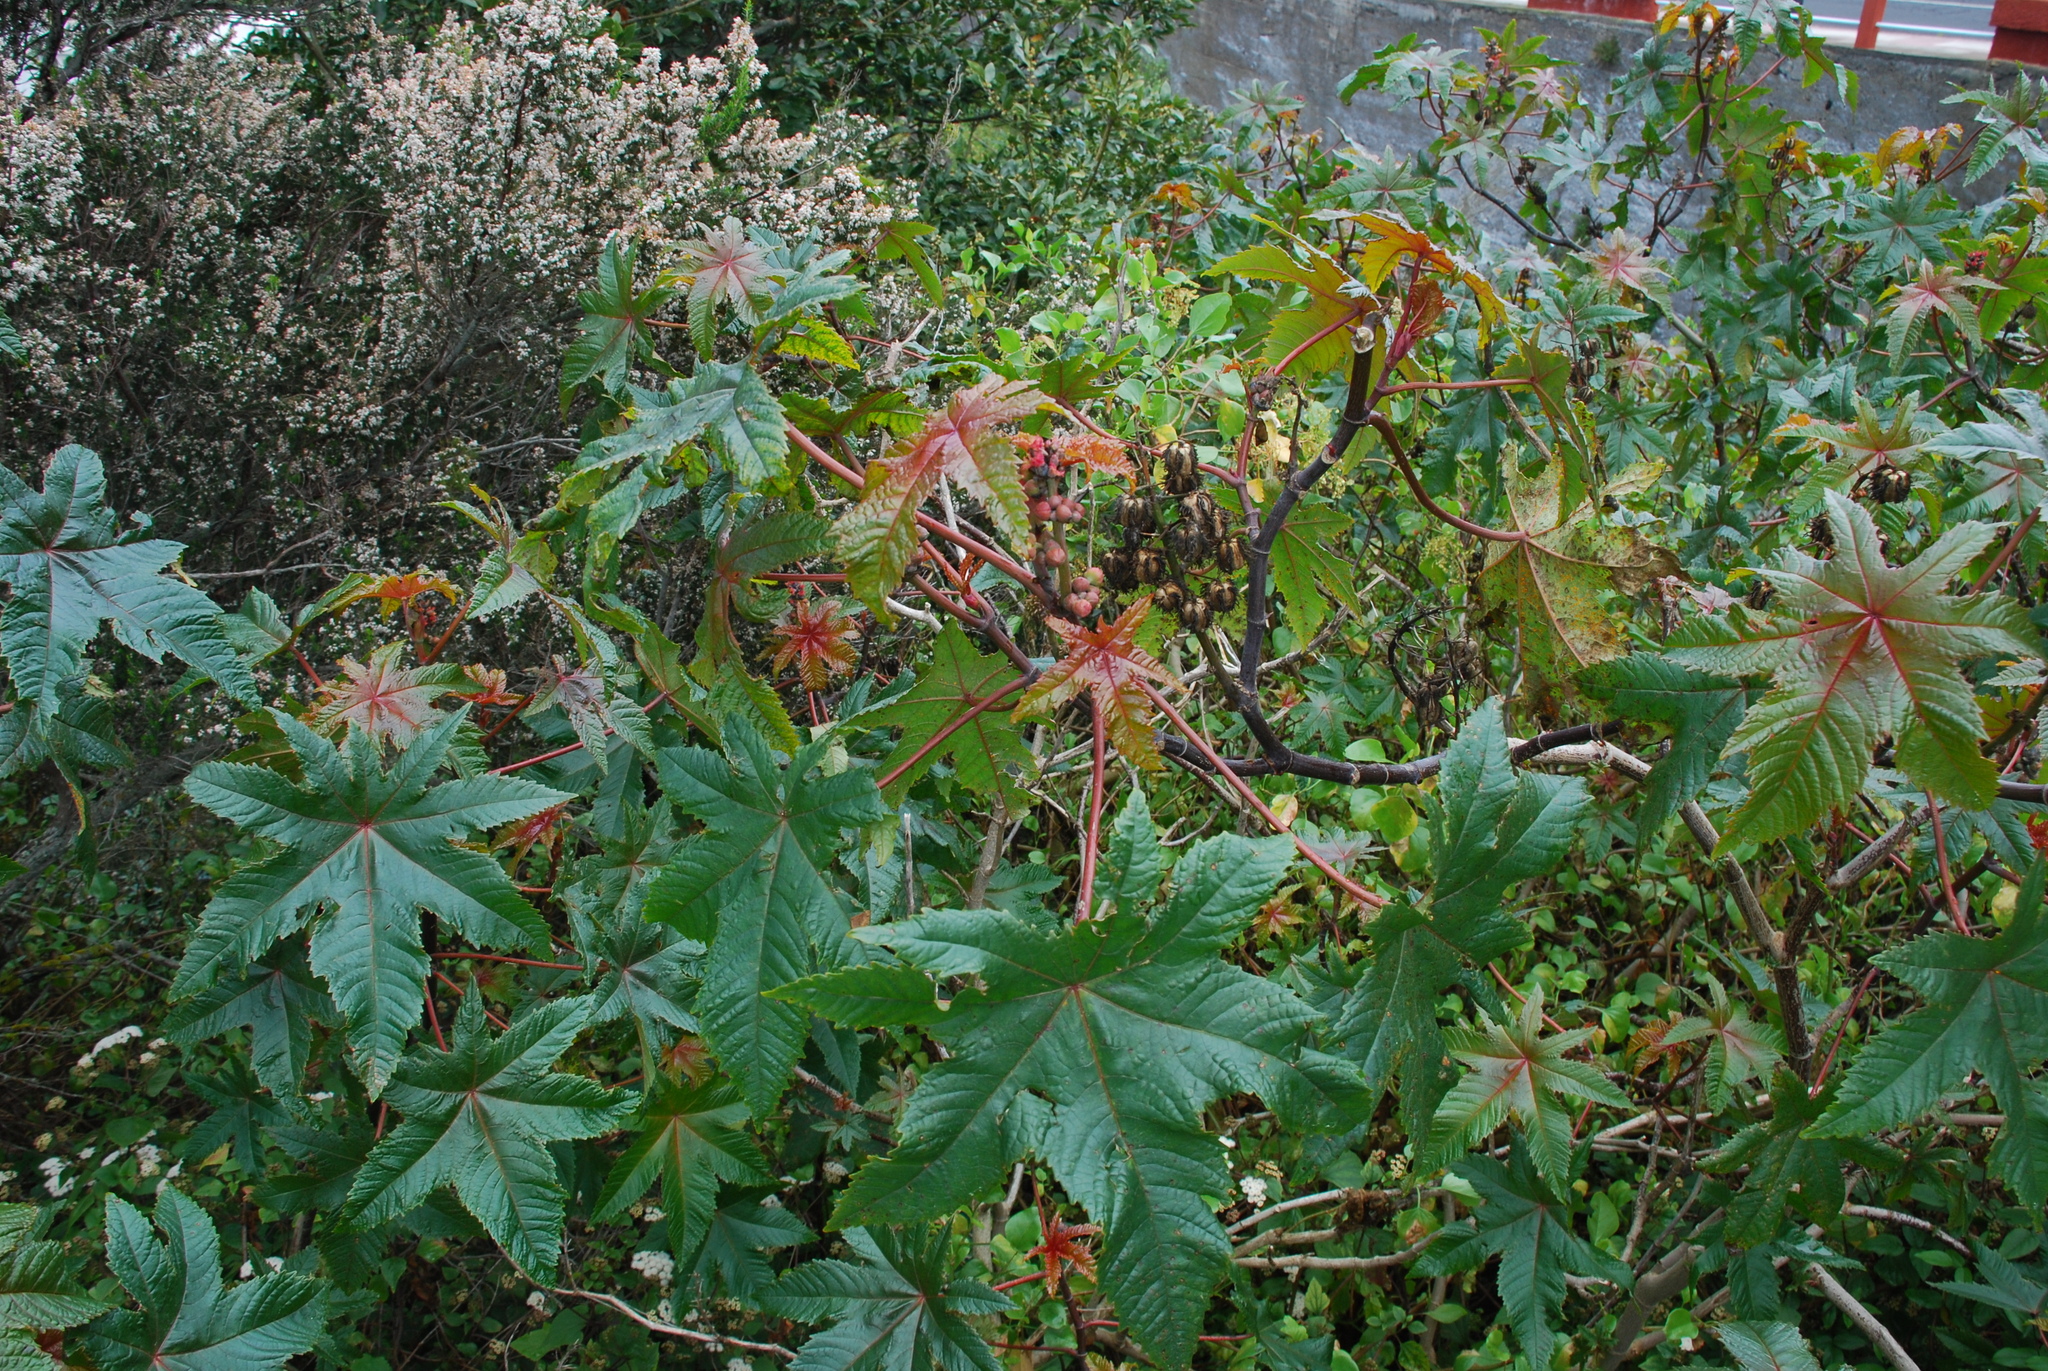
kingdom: Plantae
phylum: Tracheophyta
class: Magnoliopsida
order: Malpighiales
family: Euphorbiaceae
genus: Ricinus
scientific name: Ricinus communis
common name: Castor-oil-plant
